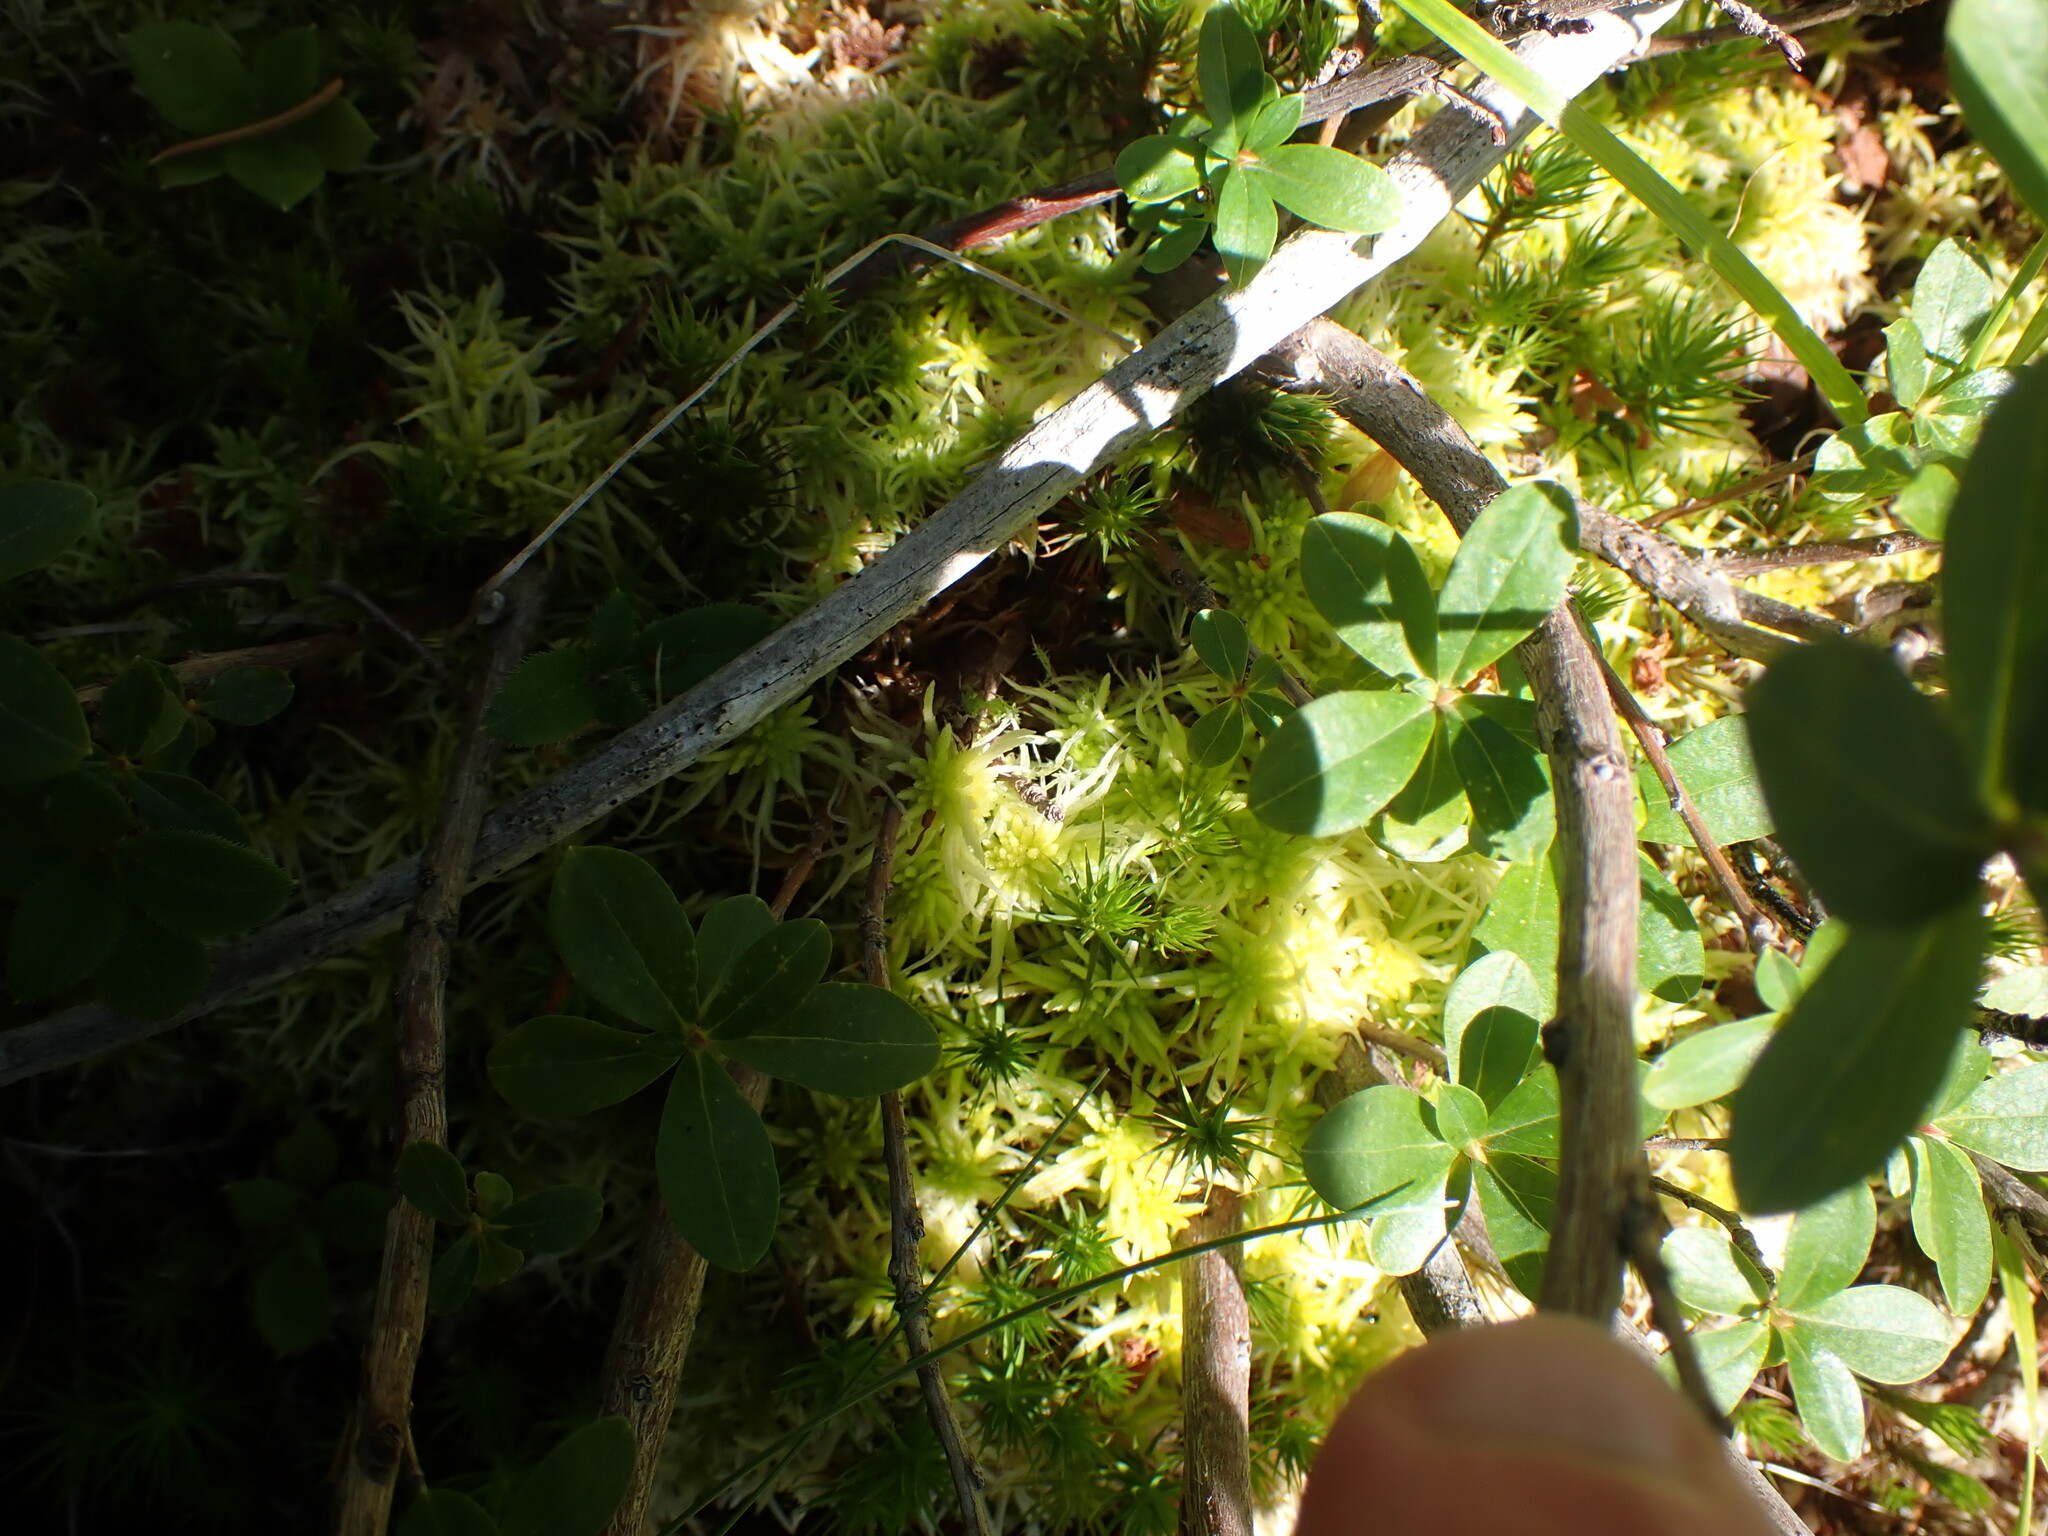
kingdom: Plantae
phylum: Bryophyta
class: Sphagnopsida
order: Sphagnales
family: Sphagnaceae
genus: Sphagnum
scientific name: Sphagnum fimbriatum
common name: Fringed peat moss
